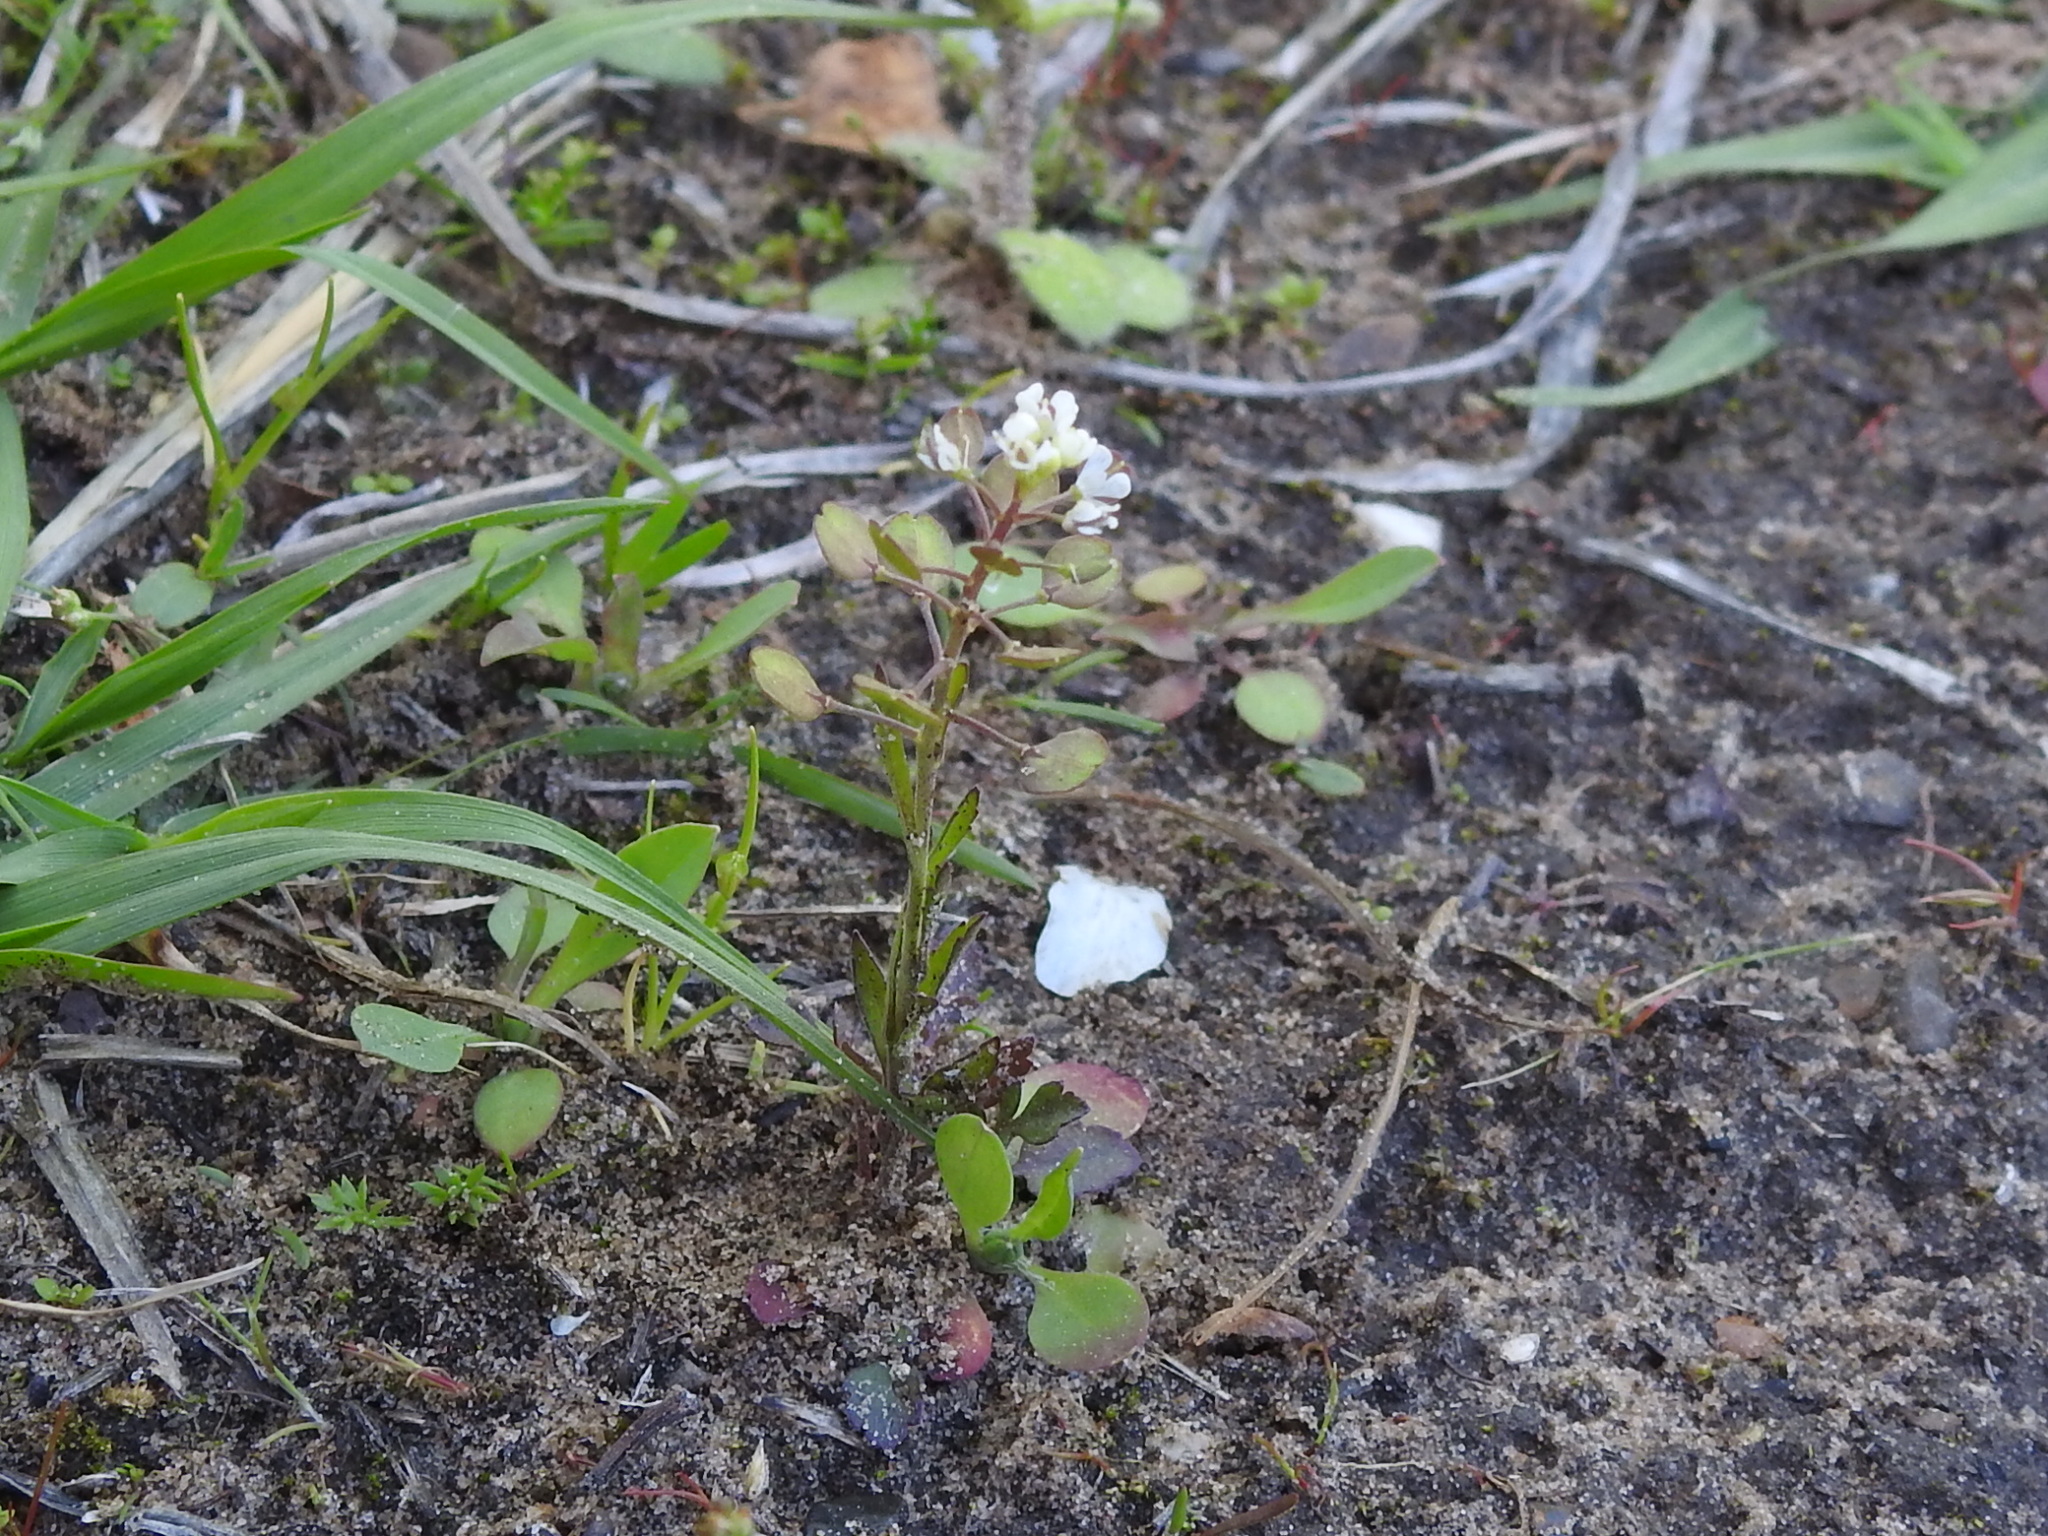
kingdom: Plantae
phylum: Tracheophyta
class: Magnoliopsida
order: Brassicales
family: Brassicaceae
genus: Lepidium
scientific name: Lepidium virginicum
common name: Least pepperwort
